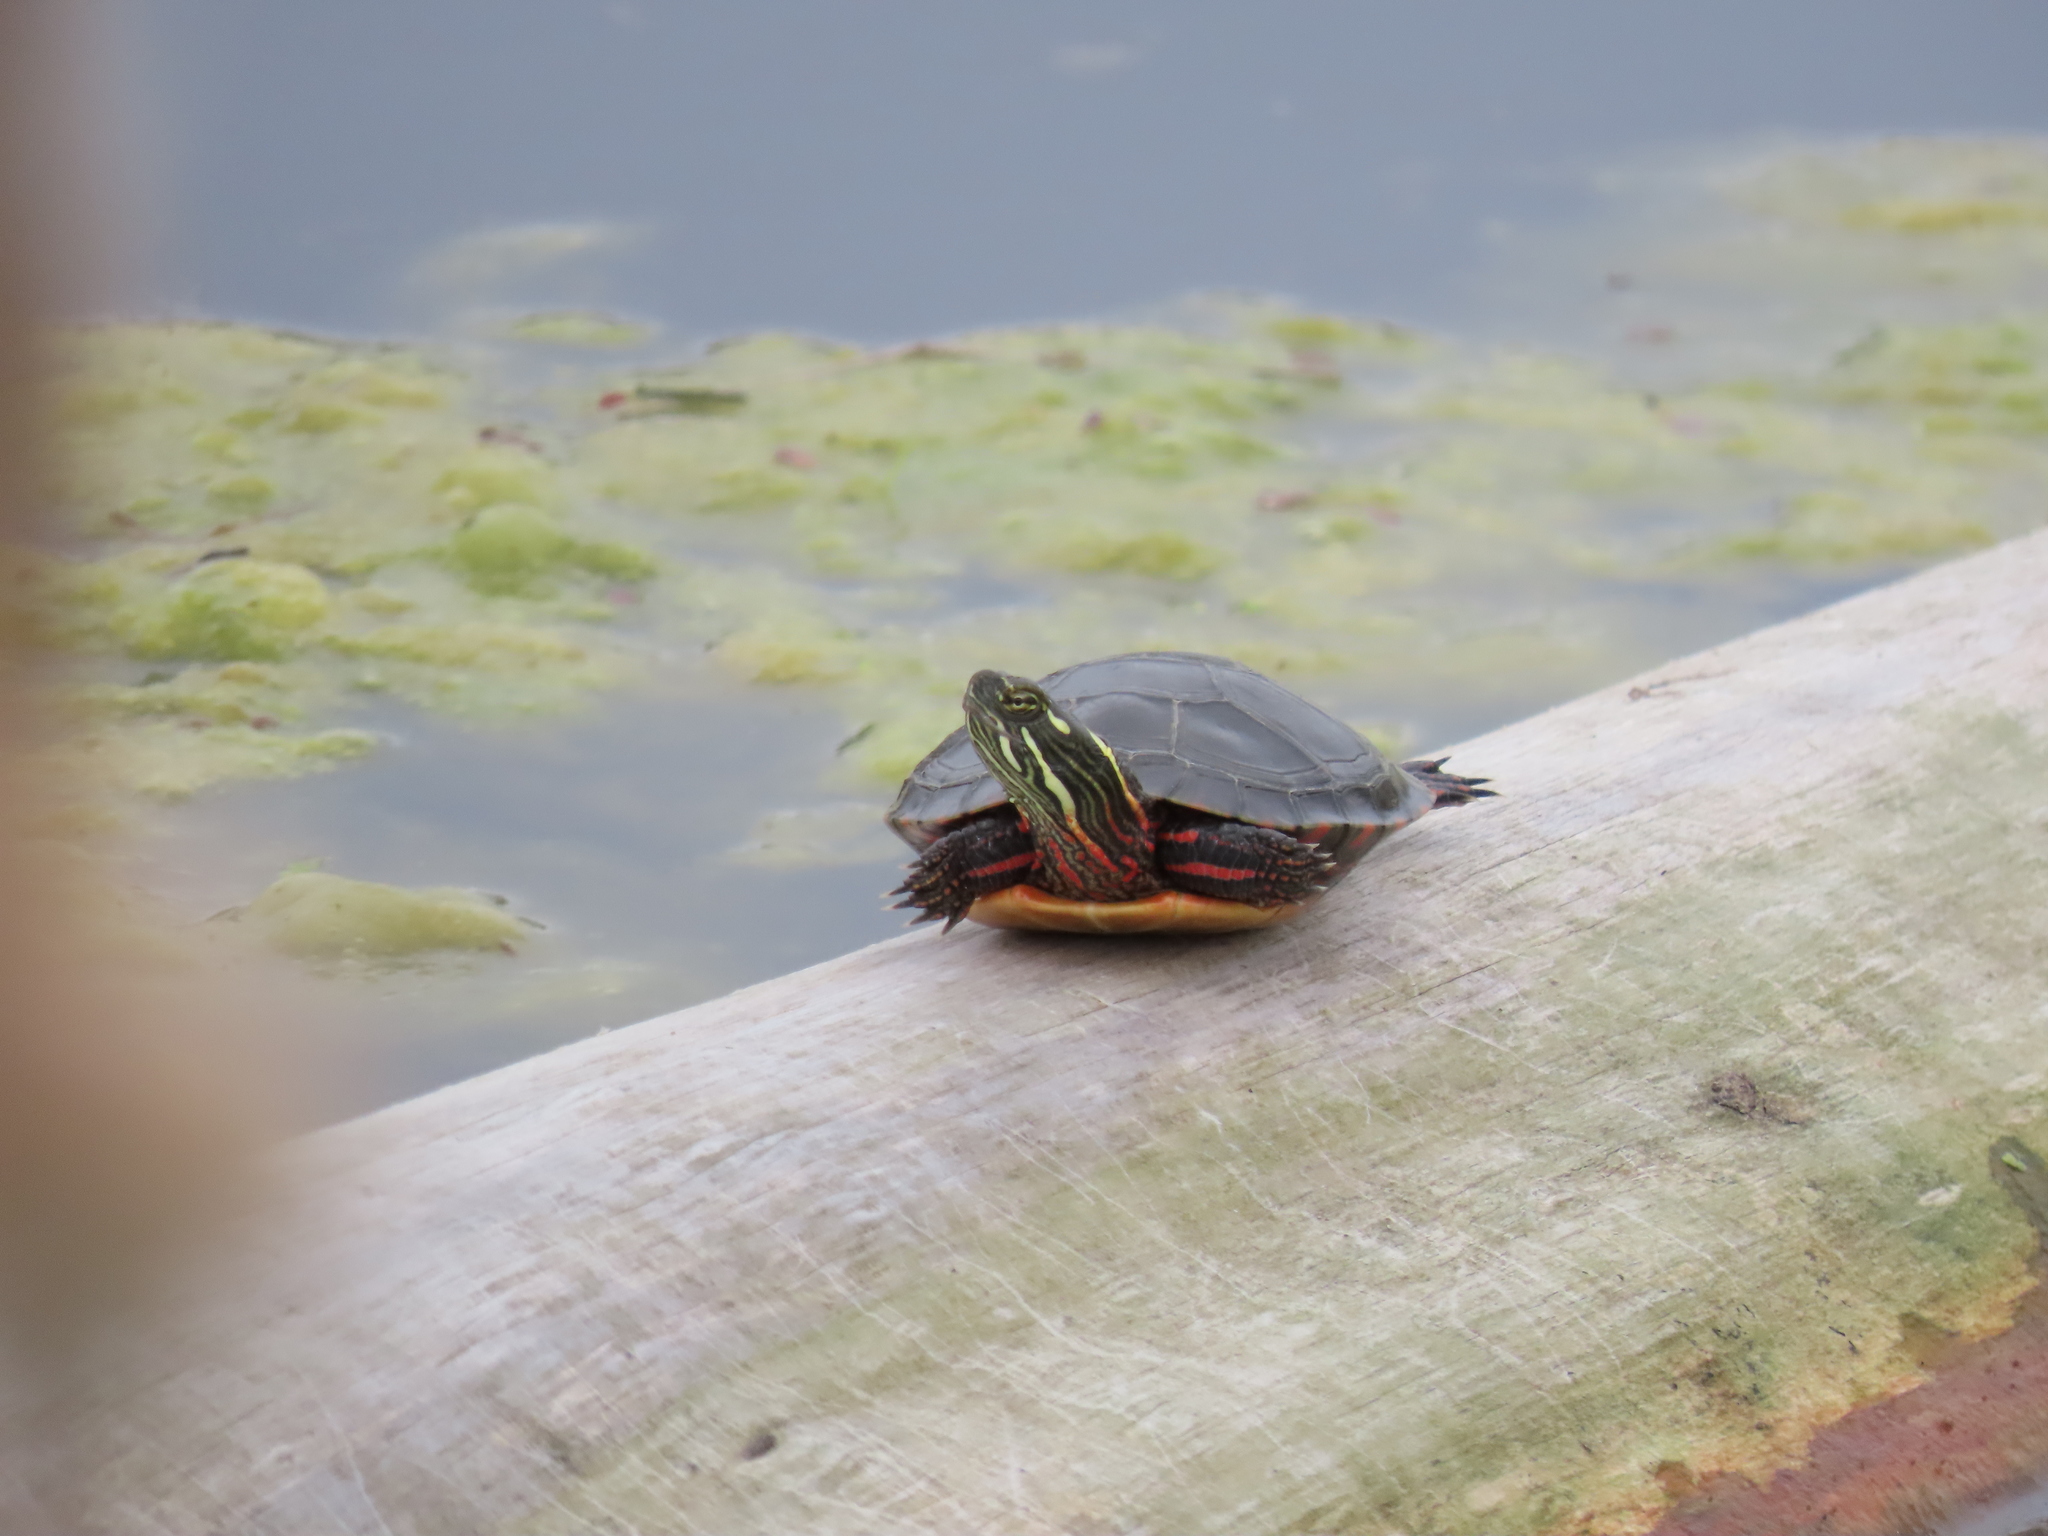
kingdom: Animalia
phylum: Chordata
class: Testudines
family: Emydidae
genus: Chrysemys
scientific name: Chrysemys picta
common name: Painted turtle
